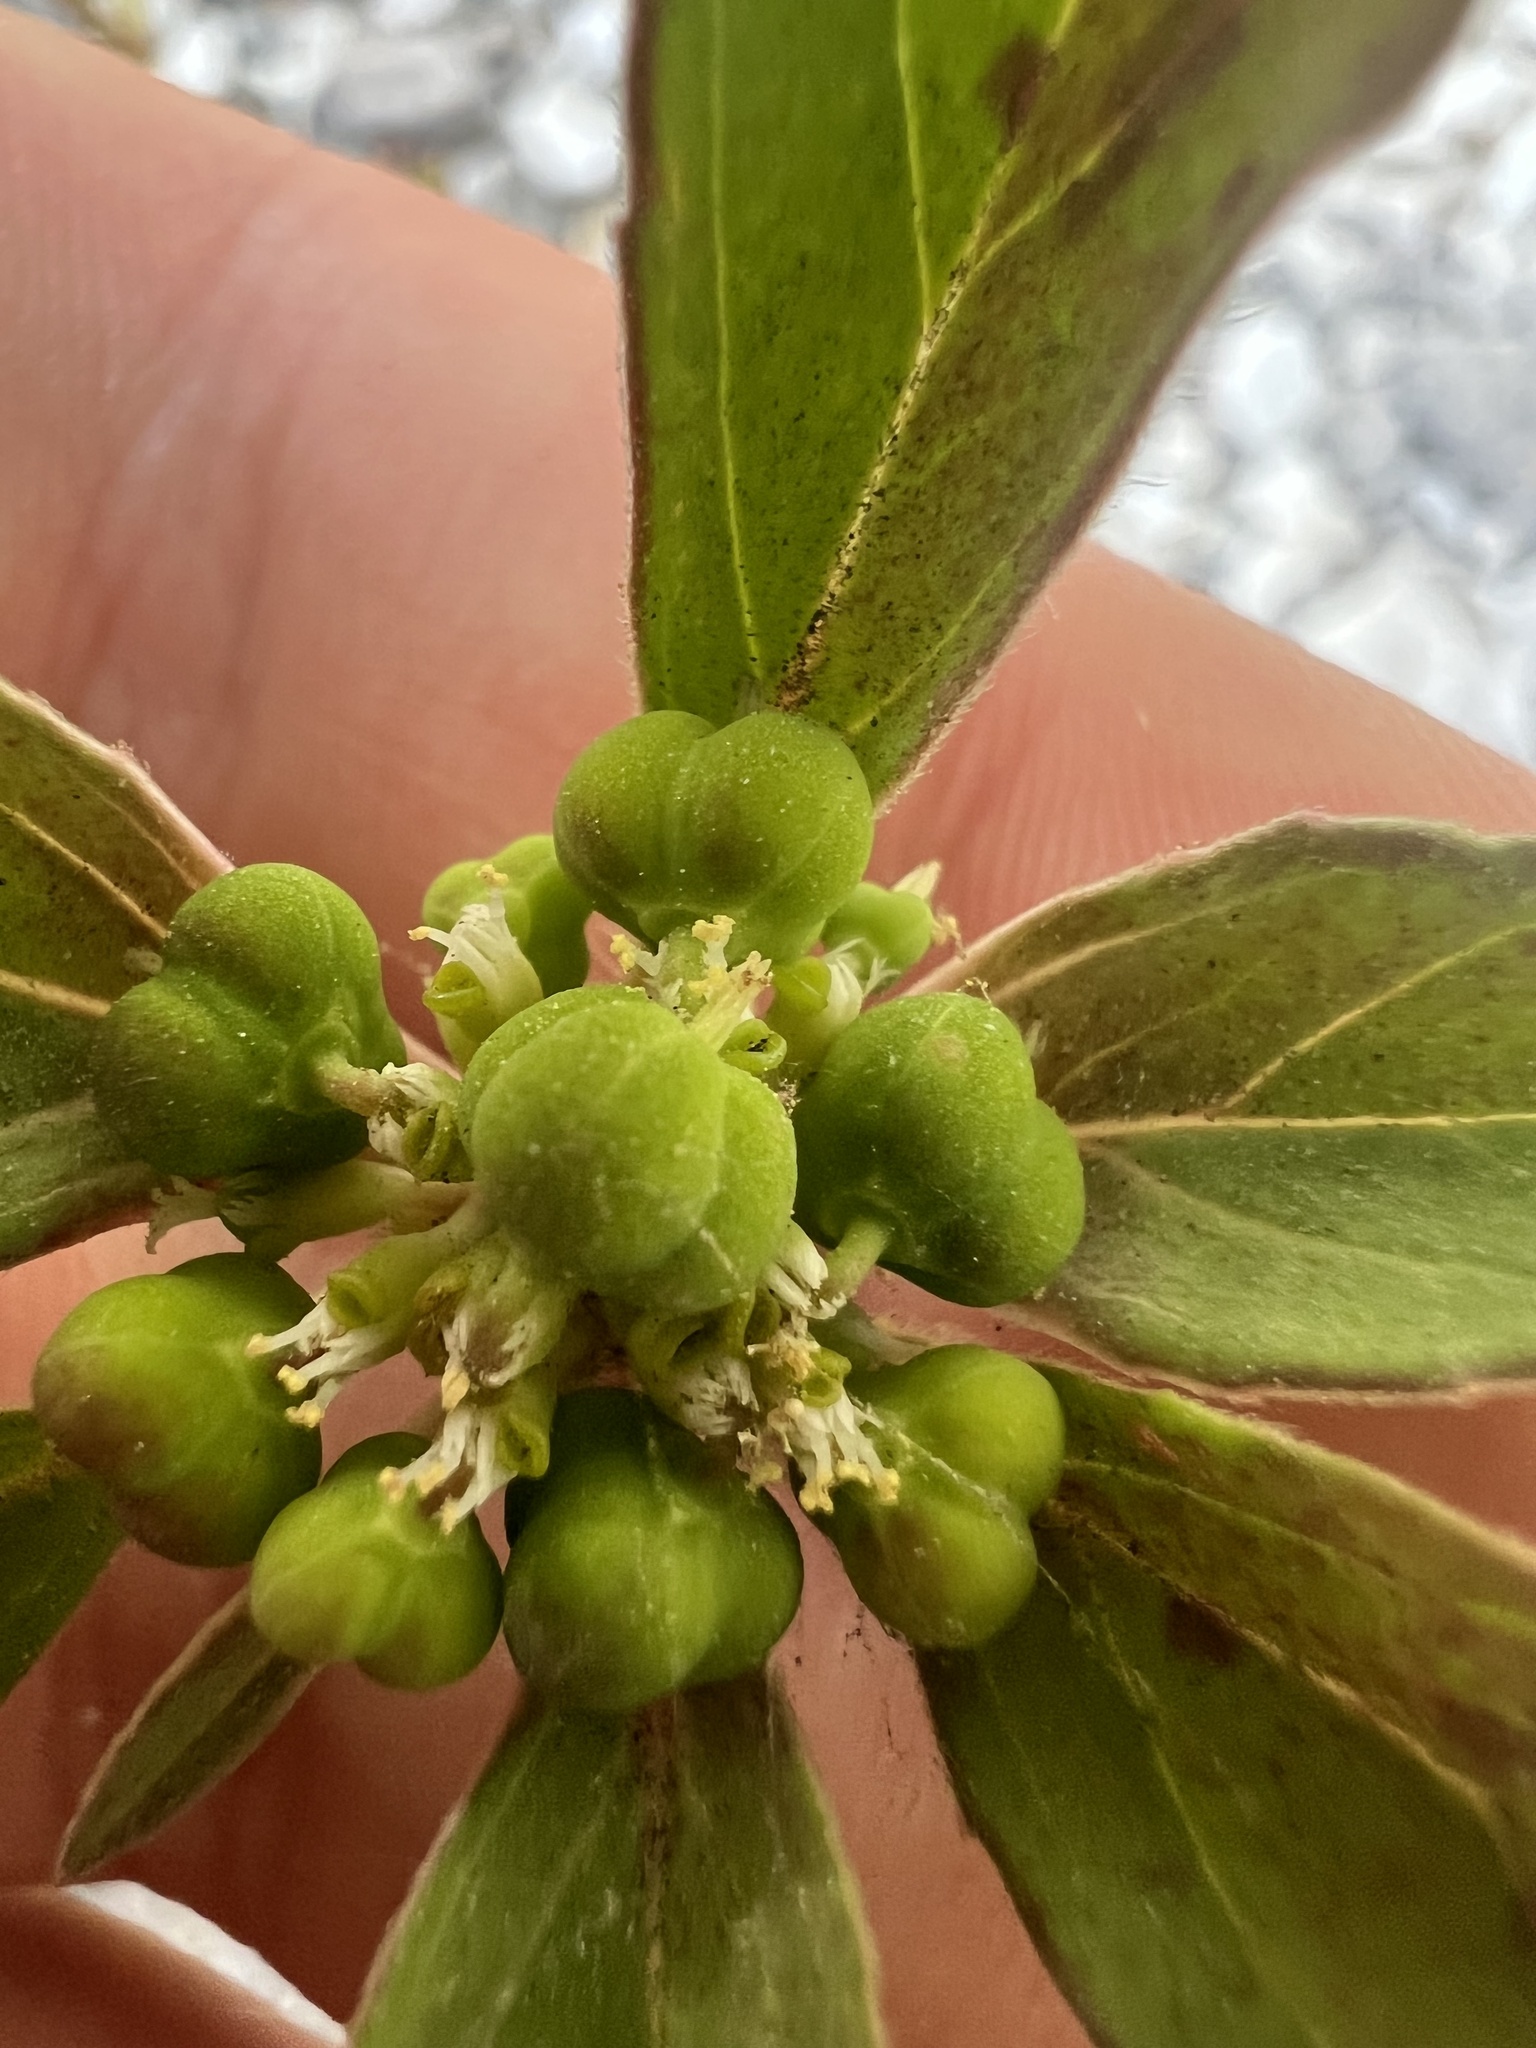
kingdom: Plantae
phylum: Tracheophyta
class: Magnoliopsida
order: Malpighiales
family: Euphorbiaceae
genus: Euphorbia
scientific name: Euphorbia dentata
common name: Dentate spurge
